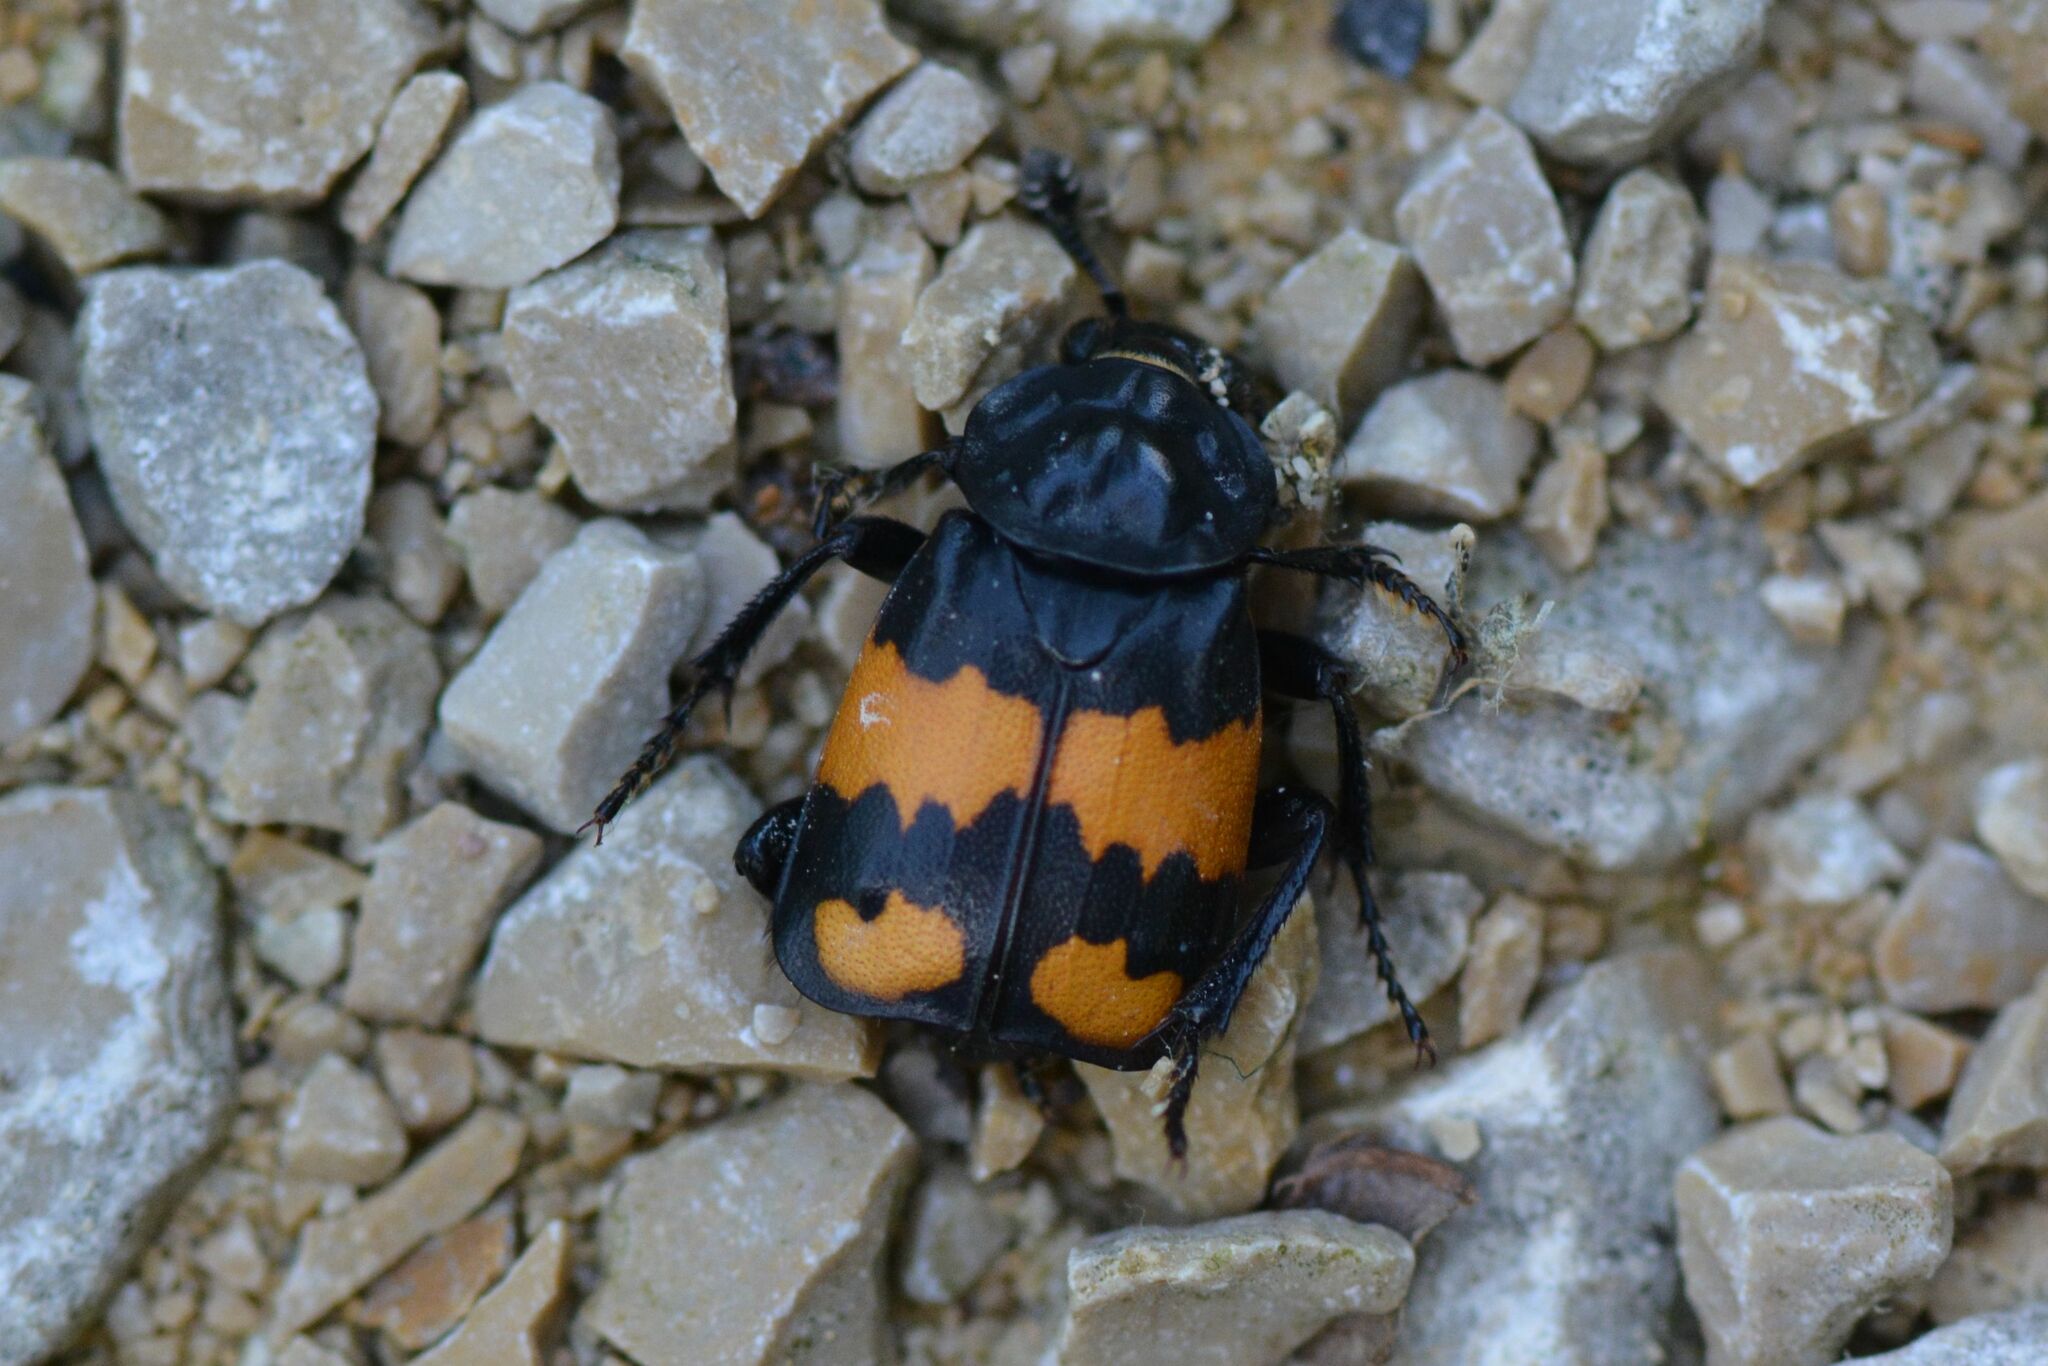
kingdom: Animalia
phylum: Arthropoda
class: Insecta
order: Coleoptera
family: Staphylinidae
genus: Nicrophorus
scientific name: Nicrophorus vespilloides
